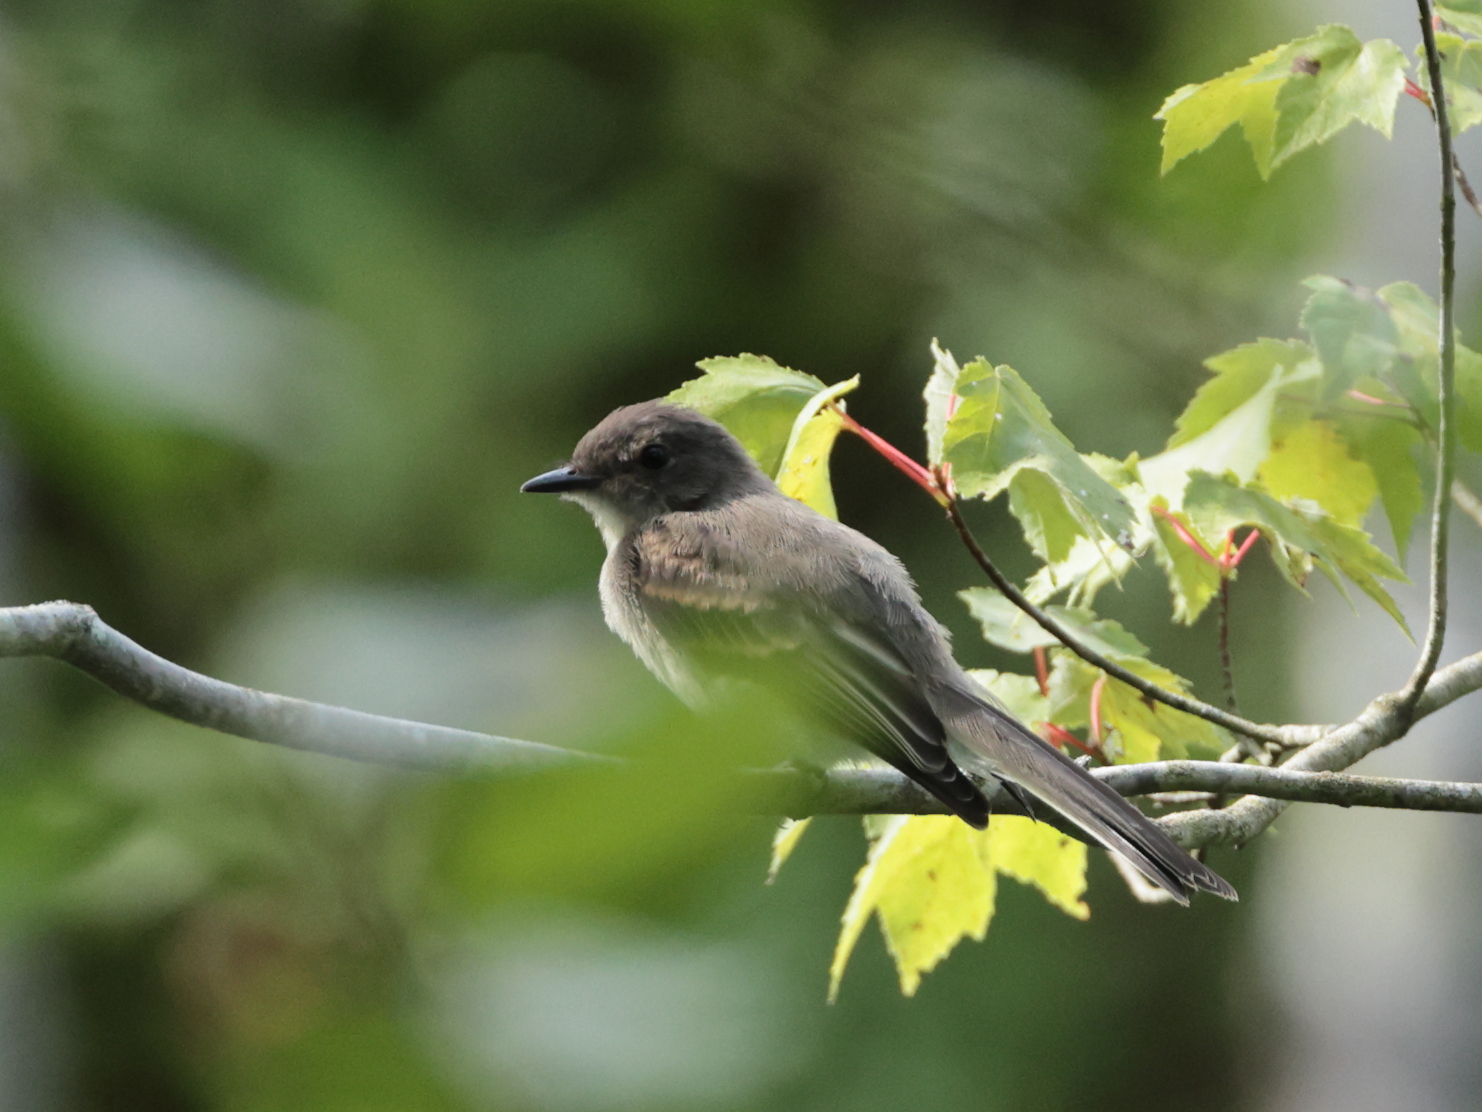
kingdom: Animalia
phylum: Chordata
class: Aves
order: Passeriformes
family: Tyrannidae
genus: Sayornis
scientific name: Sayornis phoebe
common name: Eastern phoebe
